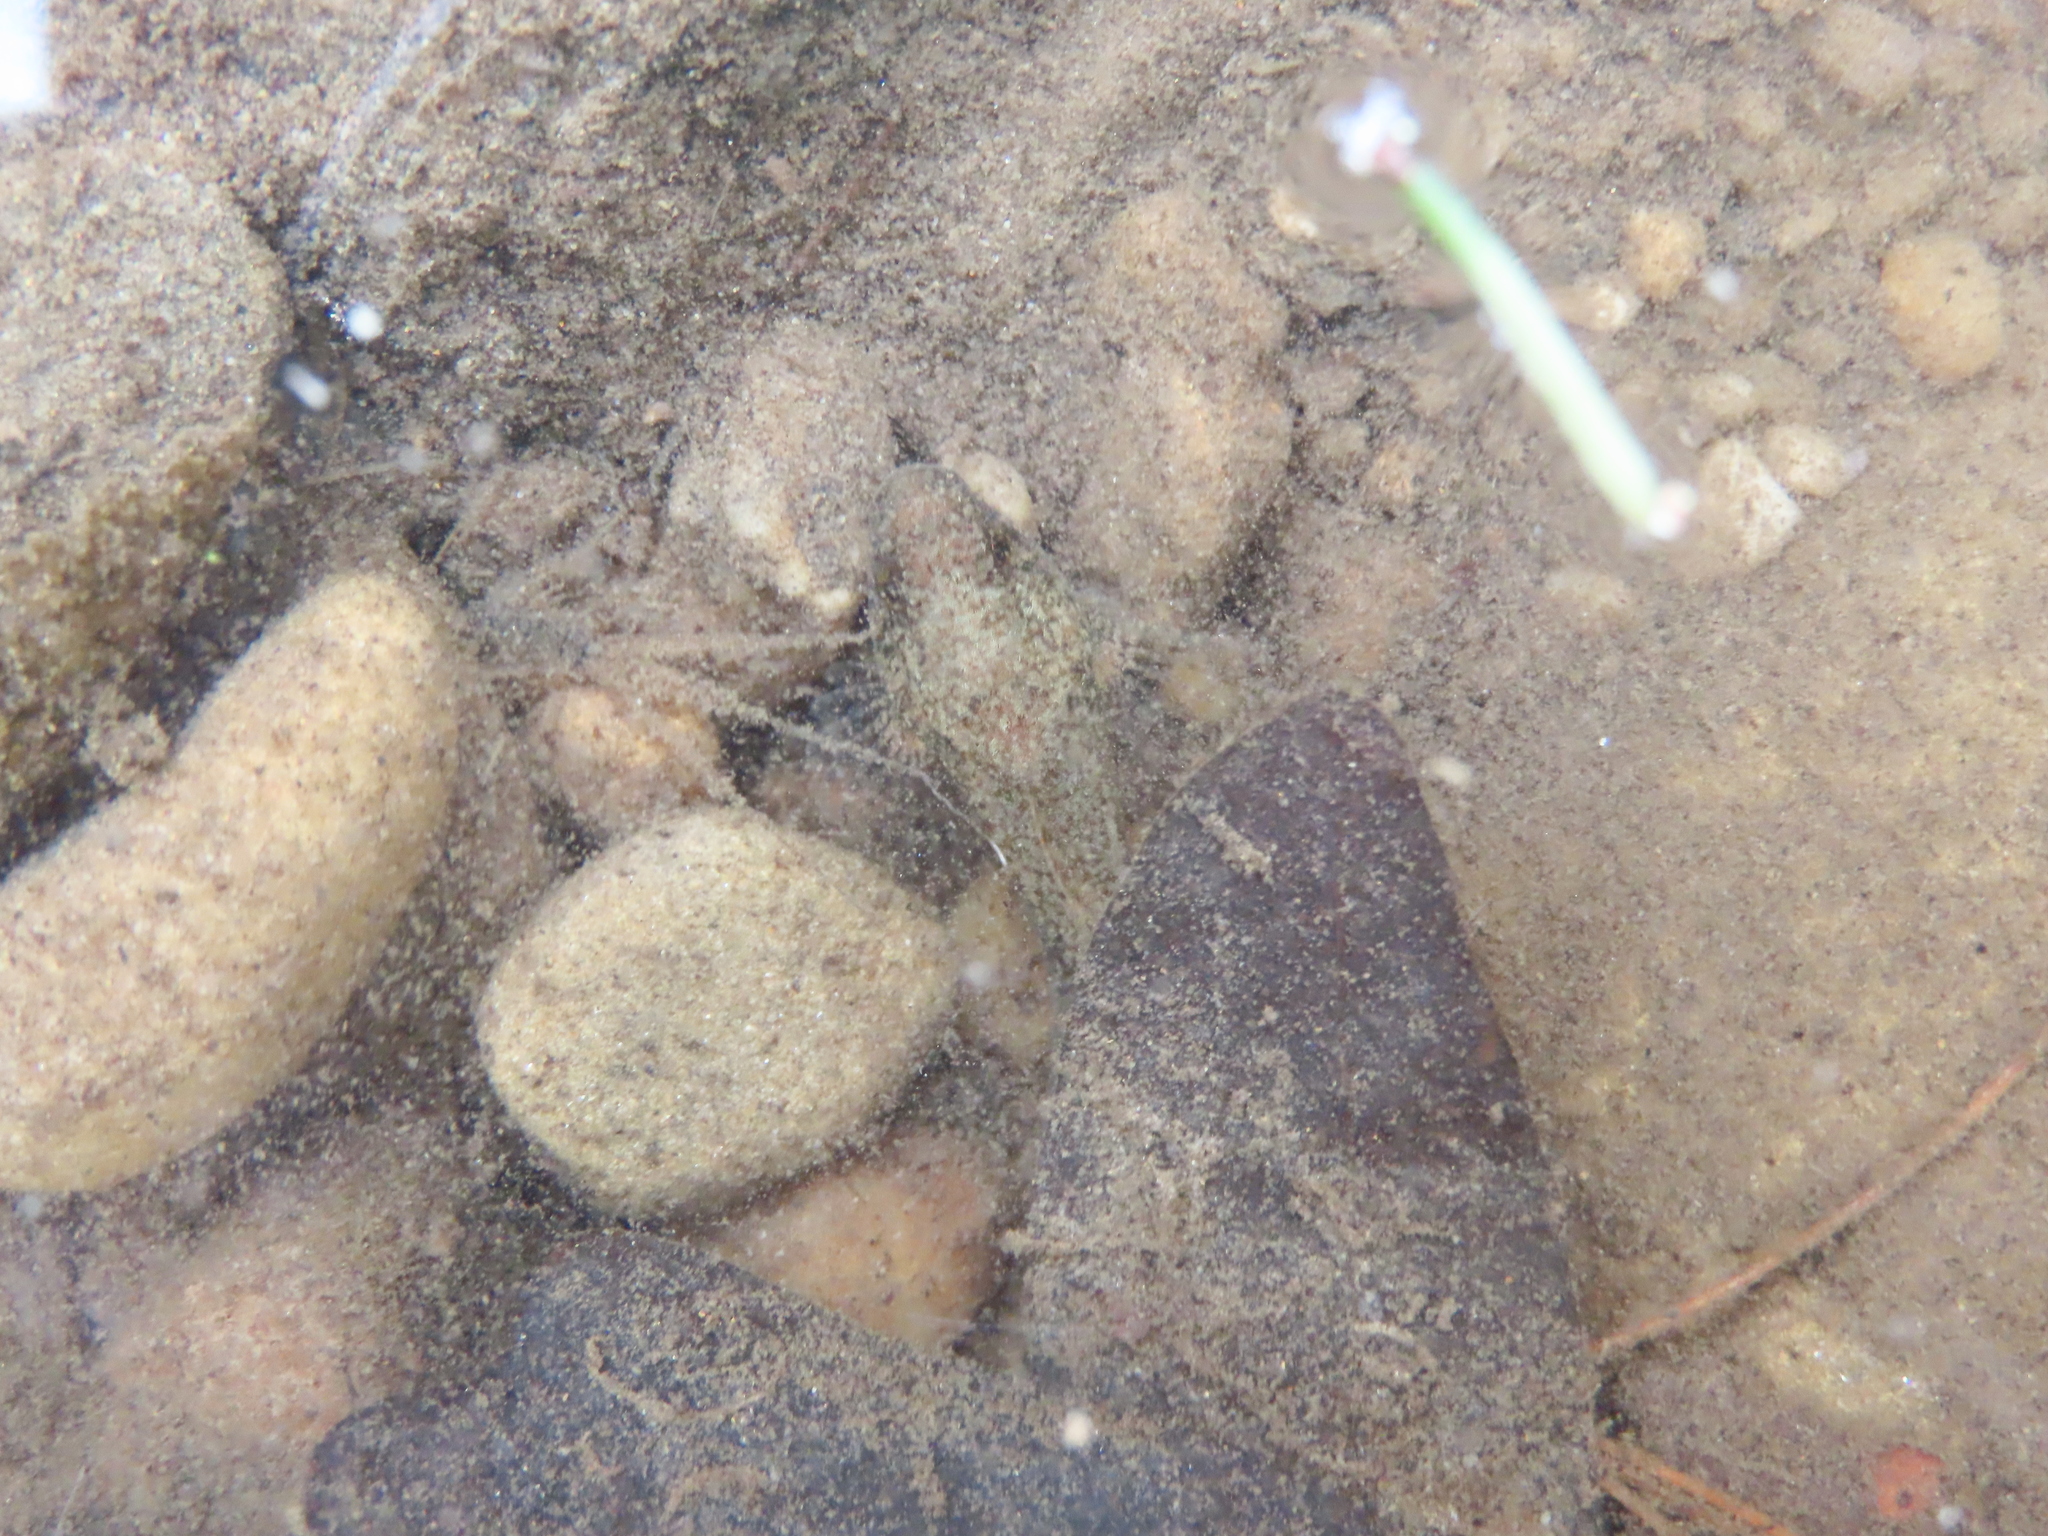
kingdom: Animalia
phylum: Chordata
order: Scorpaeniformes
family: Cottidae
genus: Cottus
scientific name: Cottus bairdii
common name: Mottled sculpin
